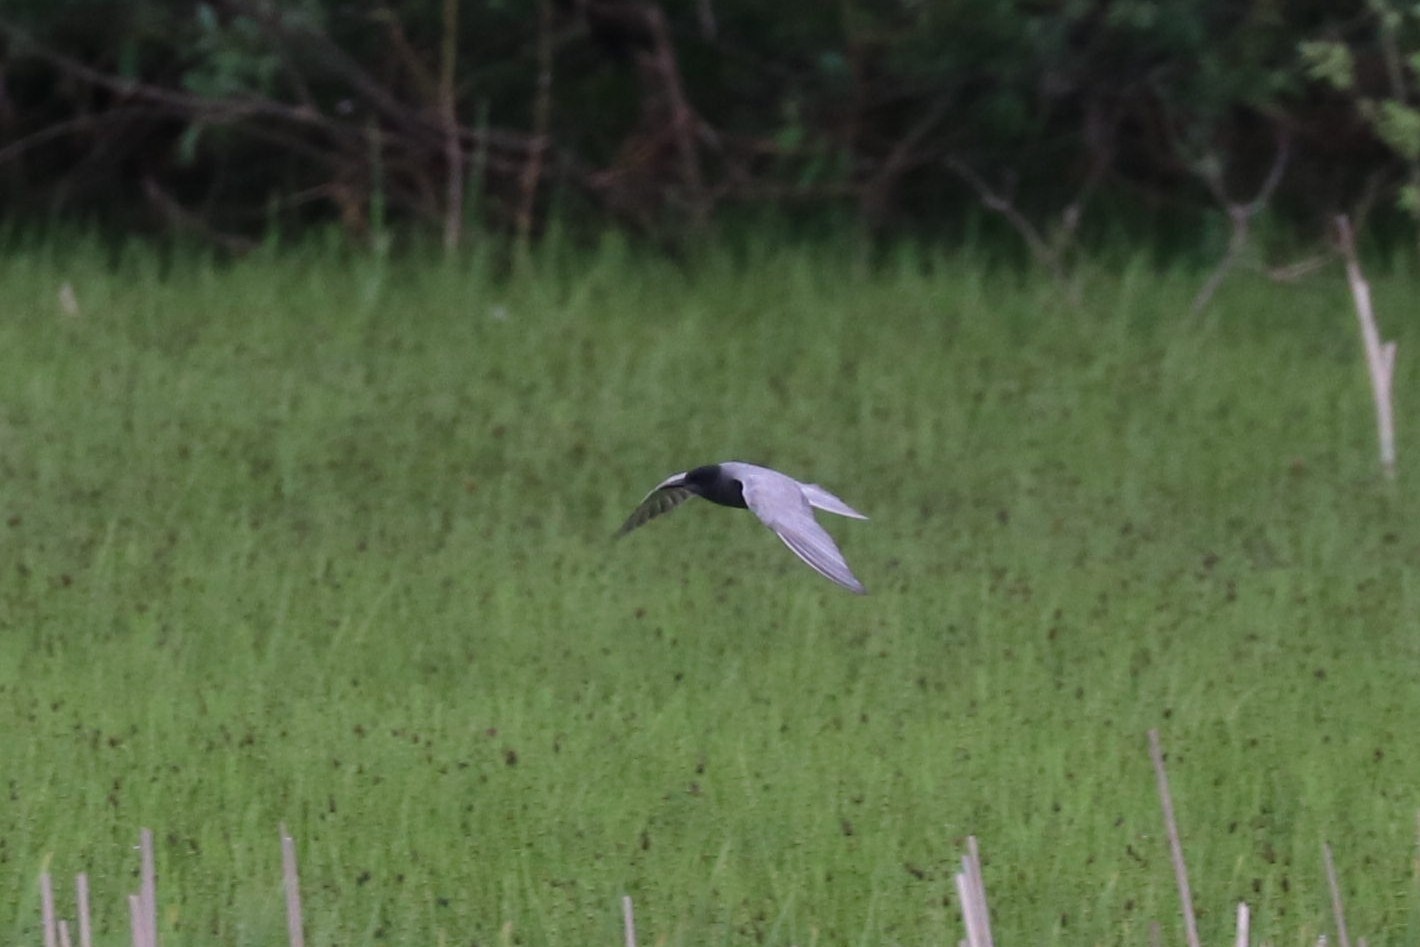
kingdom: Animalia
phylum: Chordata
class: Aves
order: Charadriiformes
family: Laridae
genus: Chlidonias
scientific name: Chlidonias niger
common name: Black tern
